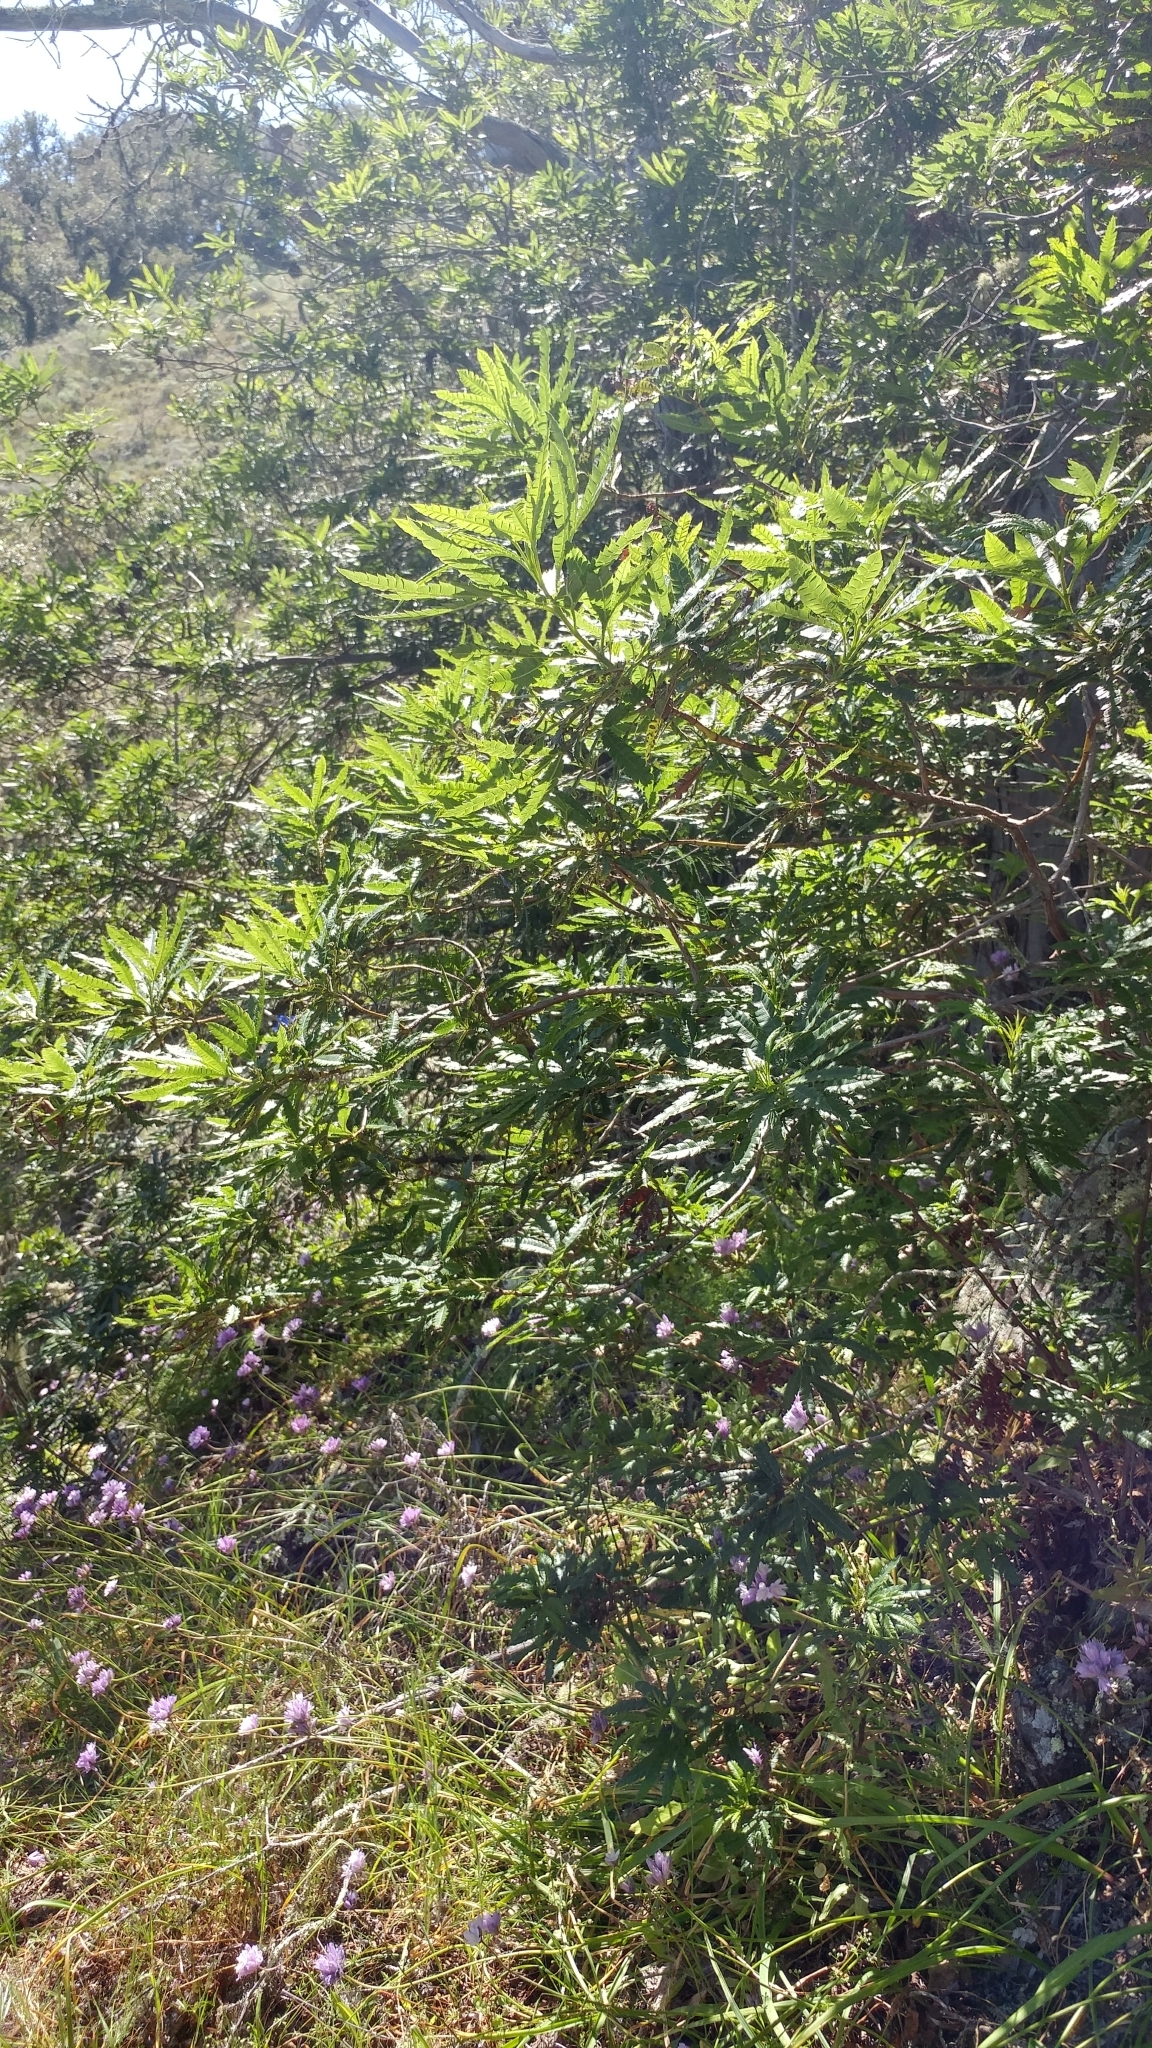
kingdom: Plantae
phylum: Tracheophyta
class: Magnoliopsida
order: Rosales
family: Rosaceae
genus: Lyonothamnus
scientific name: Lyonothamnus floribundus
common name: Catalina ironwood
